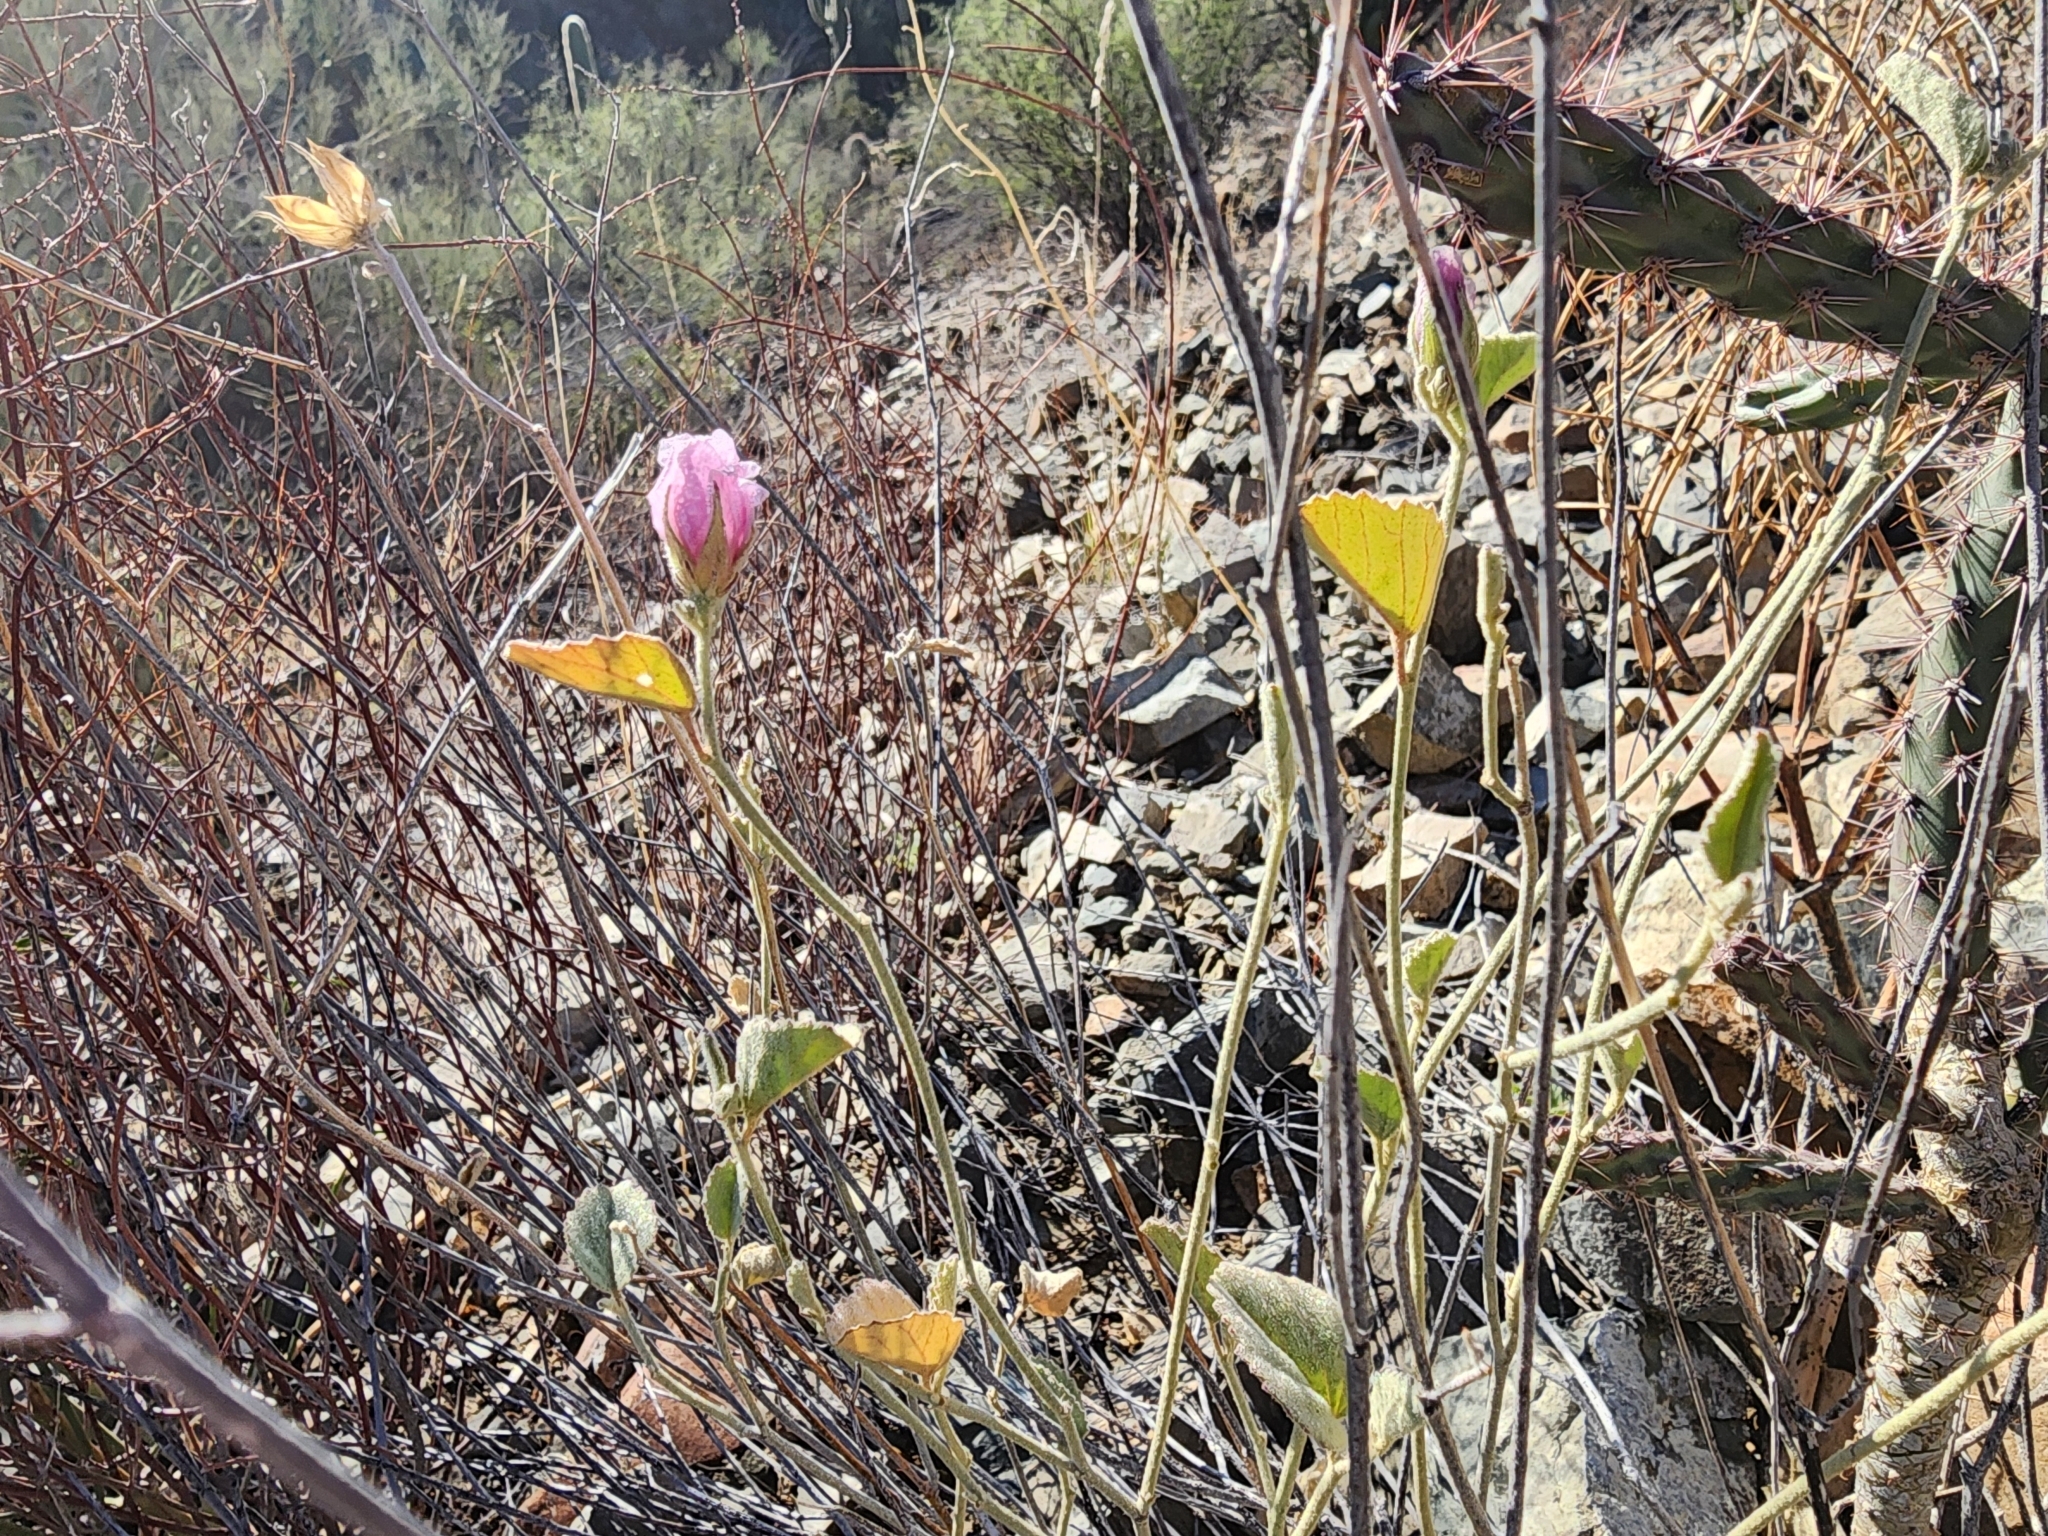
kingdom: Plantae
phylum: Tracheophyta
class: Magnoliopsida
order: Malvales
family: Malvaceae
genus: Hibiscus
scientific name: Hibiscus denudatus
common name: Paleface
